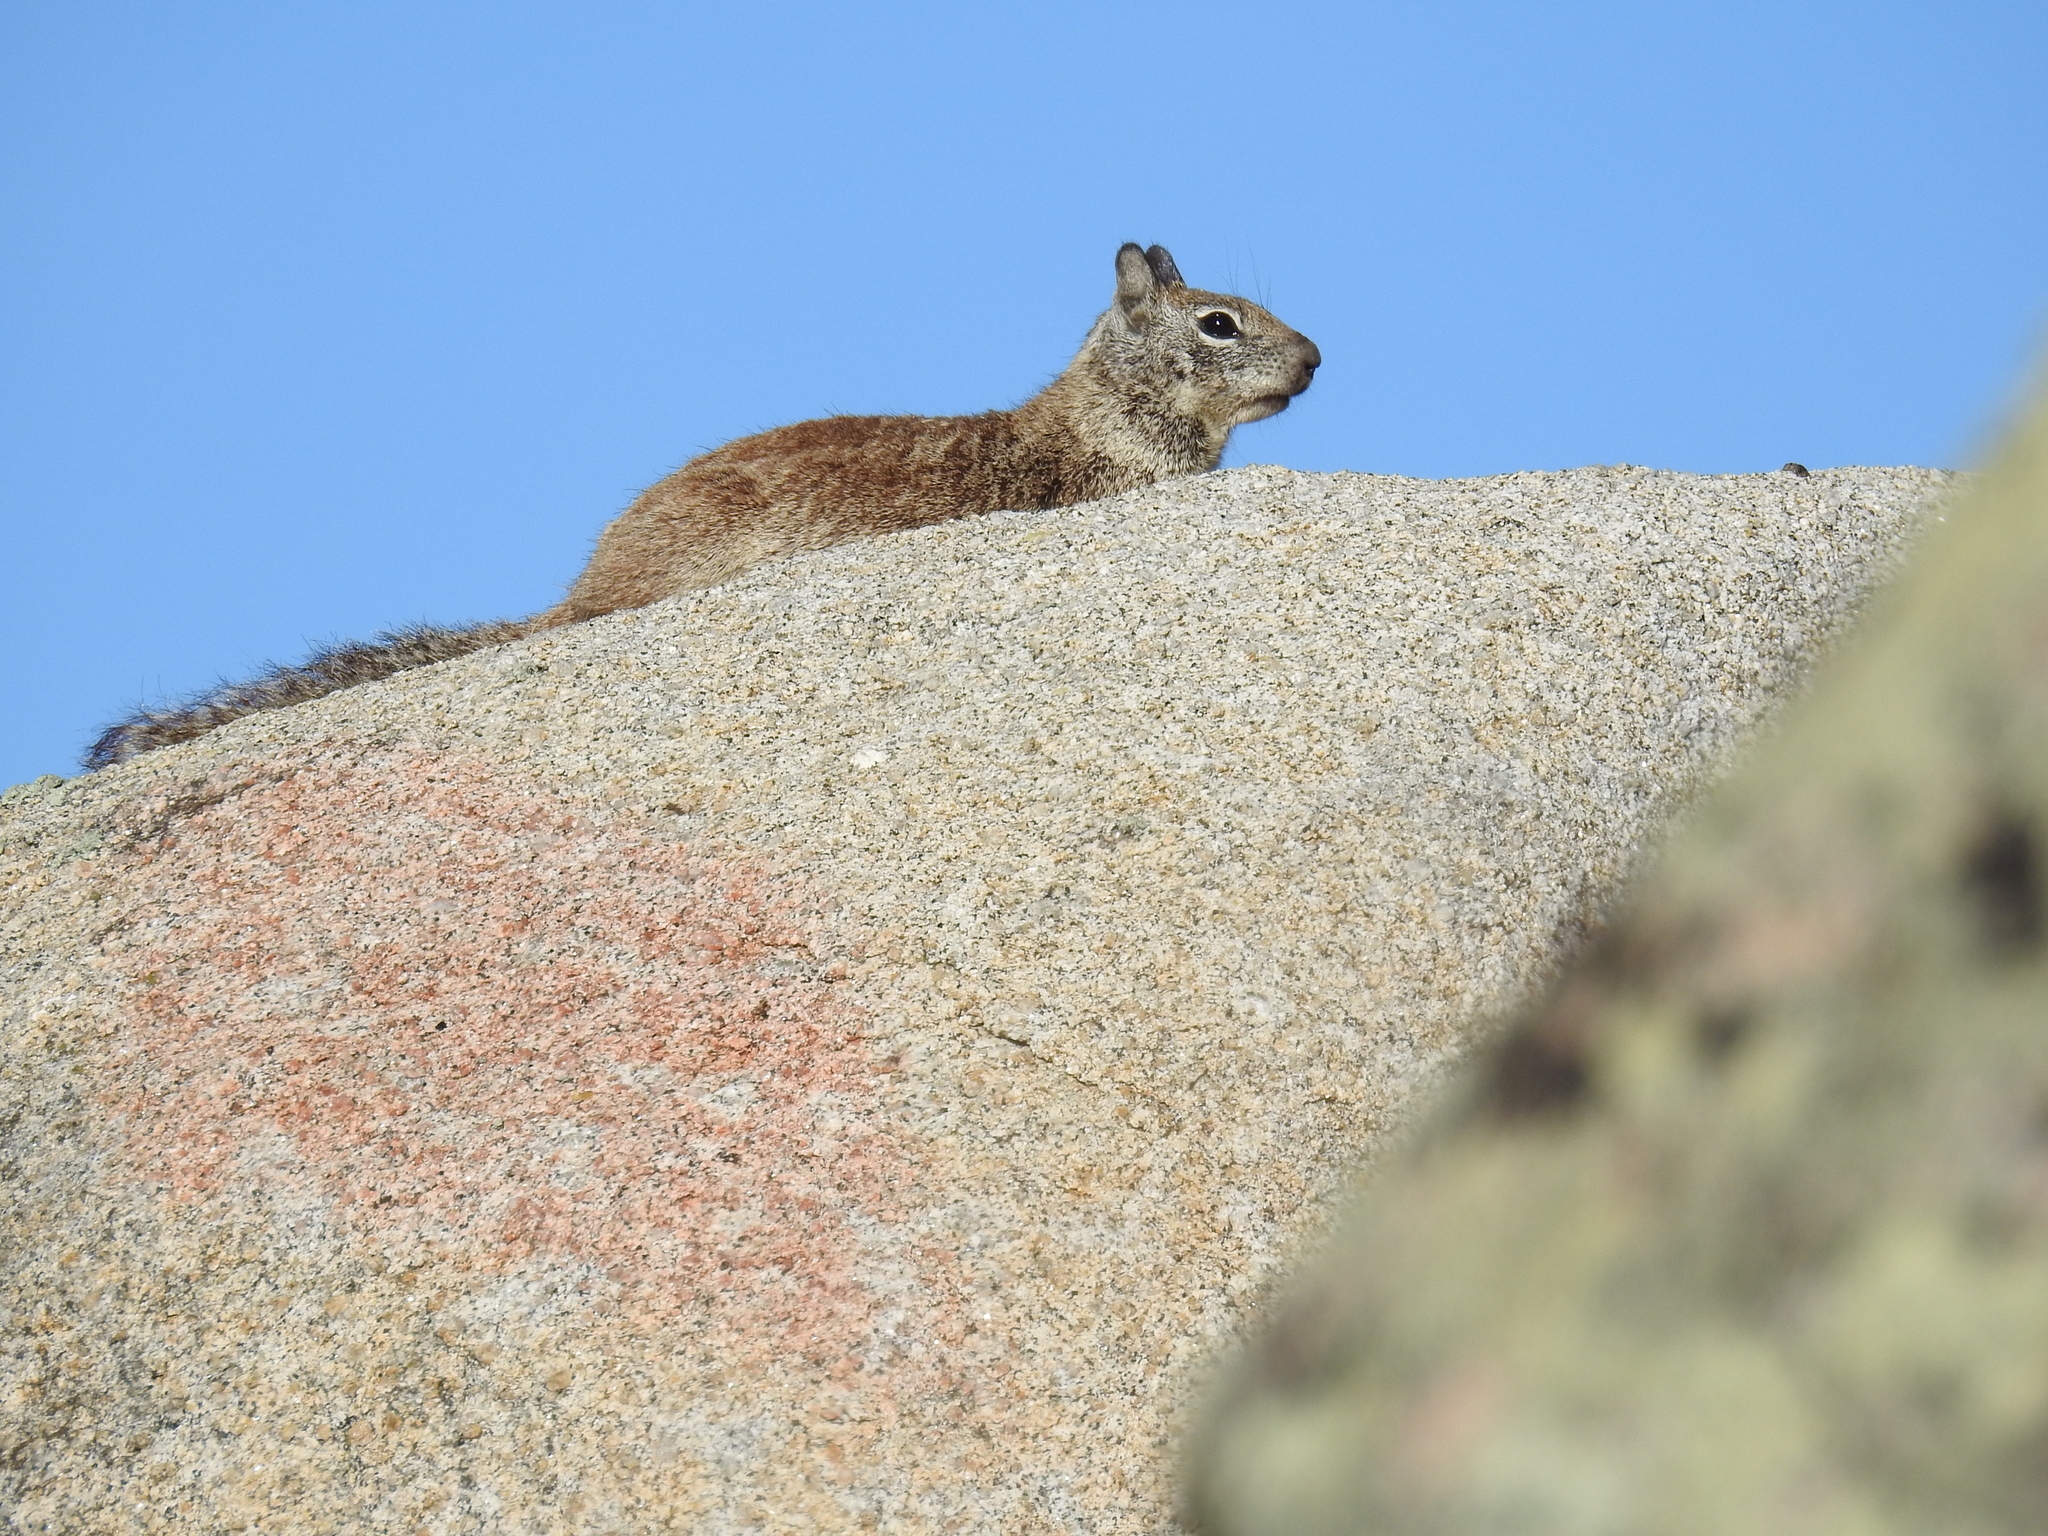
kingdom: Animalia
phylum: Chordata
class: Mammalia
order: Rodentia
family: Sciuridae
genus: Otospermophilus
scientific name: Otospermophilus beecheyi
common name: California ground squirrel
